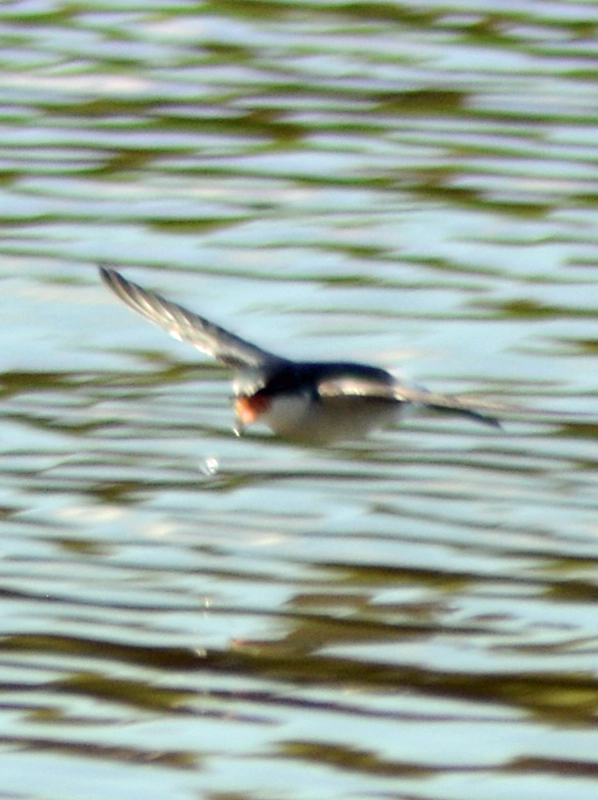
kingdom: Animalia
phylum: Chordata
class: Aves
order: Passeriformes
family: Hirundinidae
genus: Tachycineta
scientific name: Tachycineta albilinea
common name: Mangrove swallow
